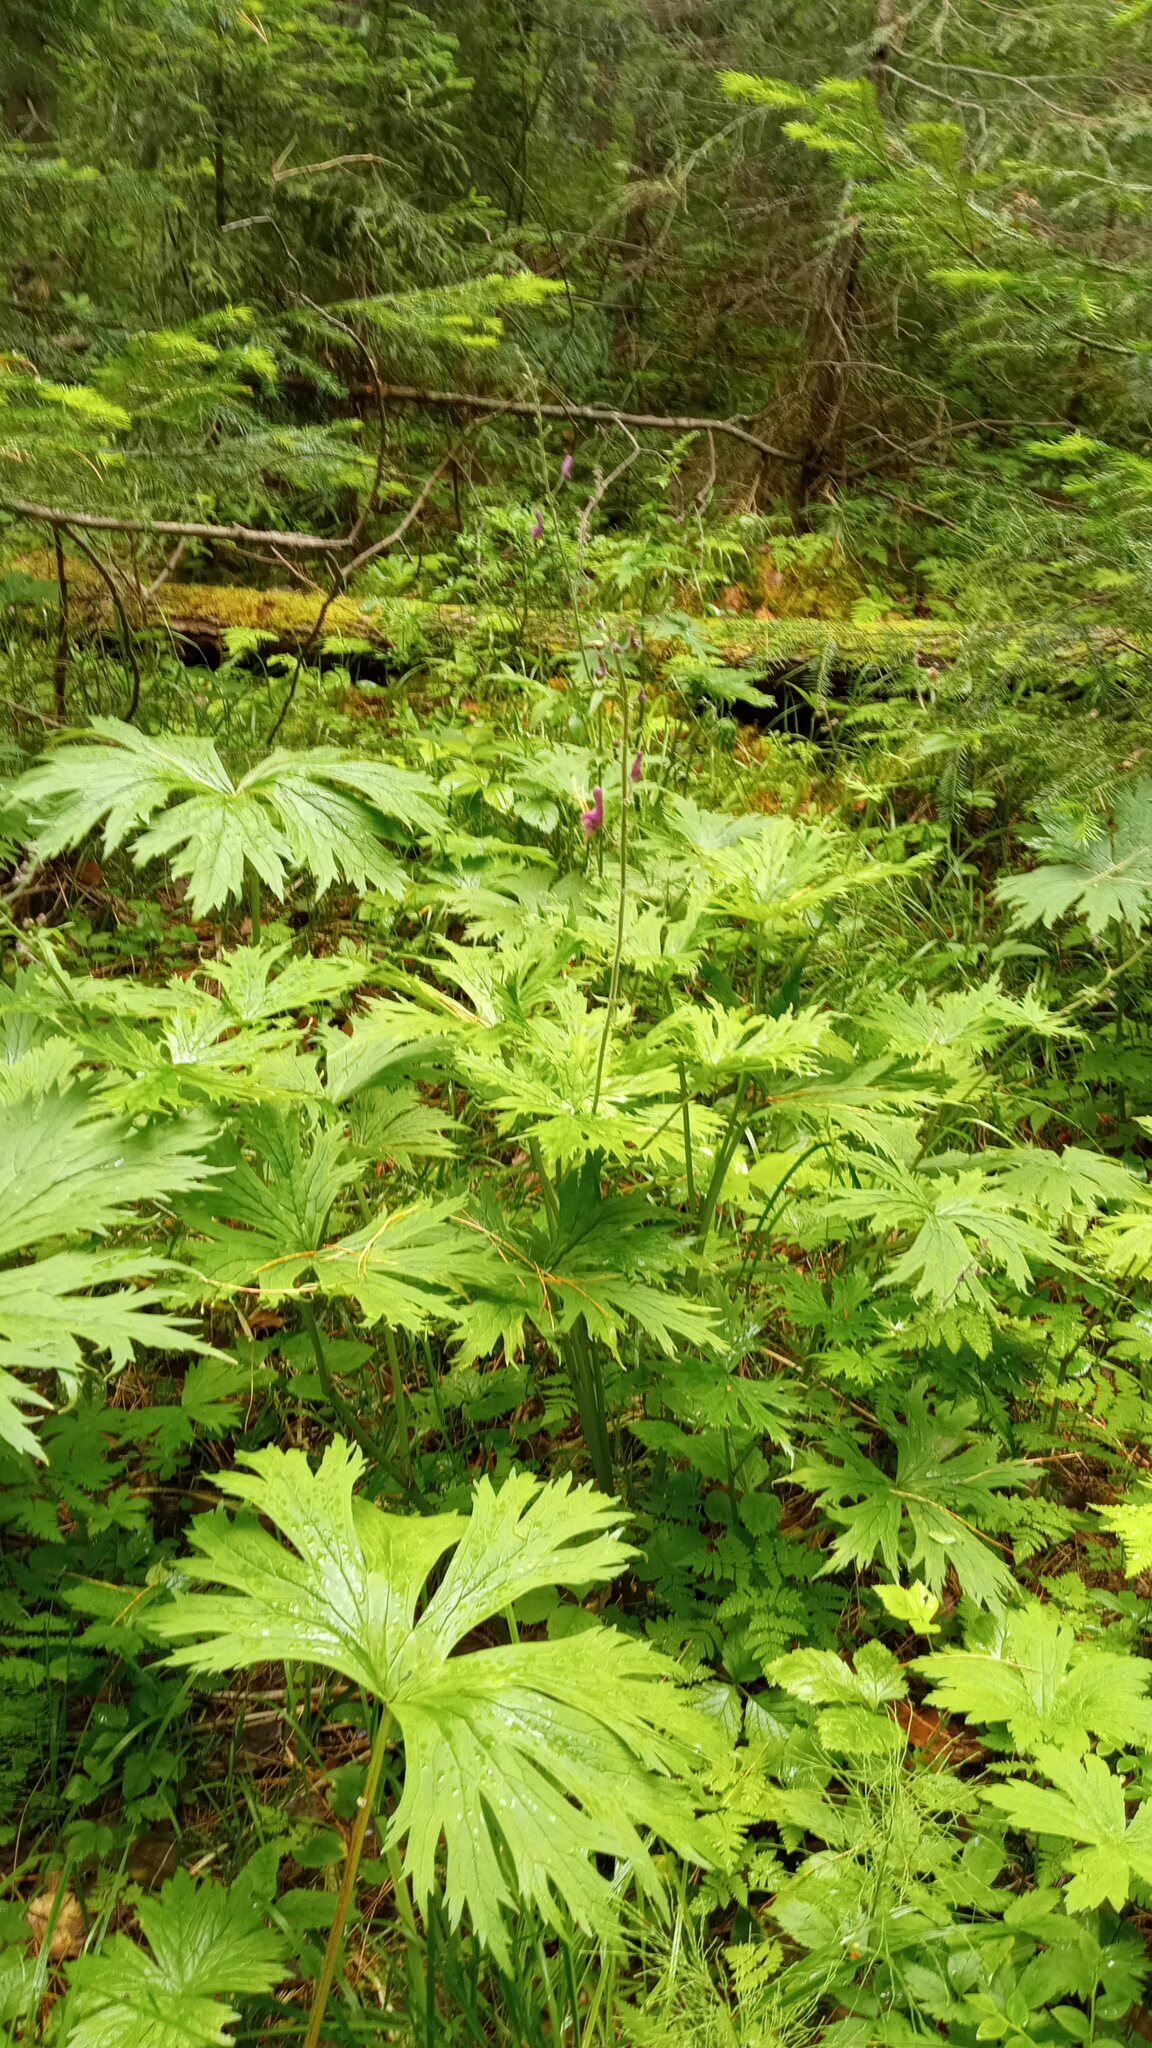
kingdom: Plantae
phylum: Tracheophyta
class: Magnoliopsida
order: Ranunculales
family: Ranunculaceae
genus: Aconitum
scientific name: Aconitum septentrionale
